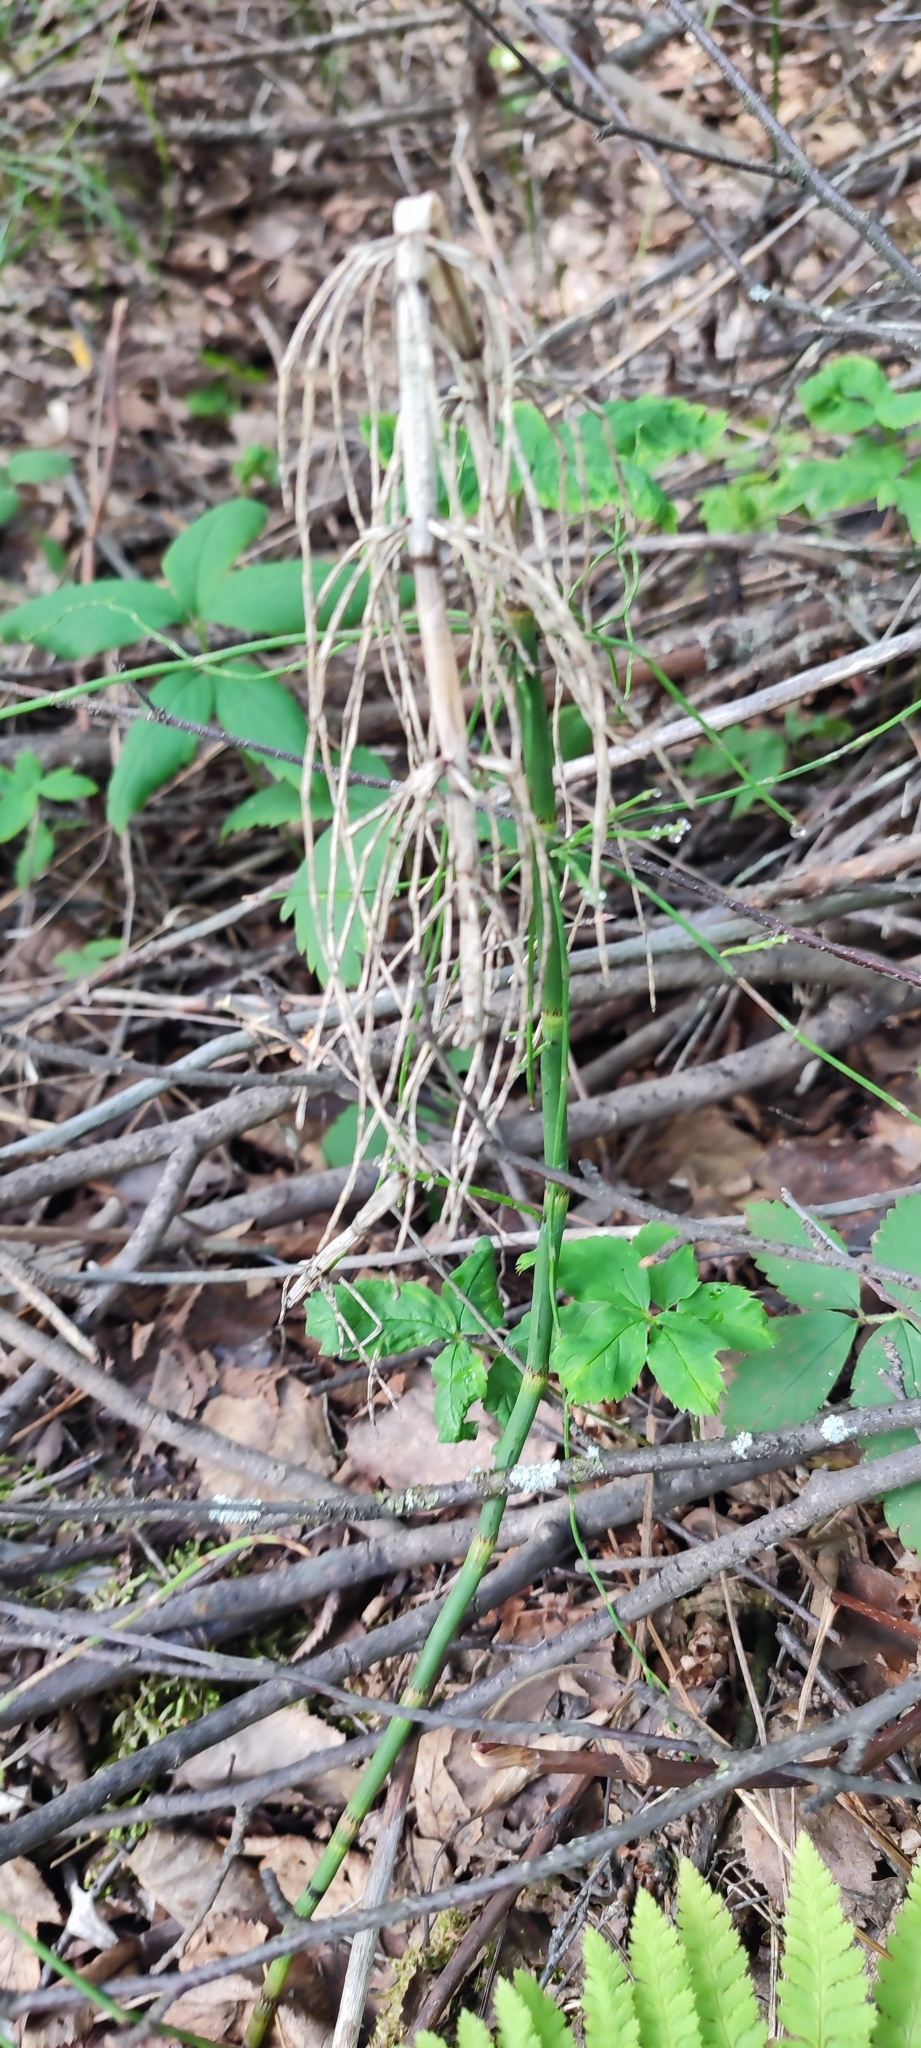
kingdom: Plantae
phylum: Tracheophyta
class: Polypodiopsida
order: Equisetales
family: Equisetaceae
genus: Equisetum
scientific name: Equisetum fluviatile
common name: Water horsetail
